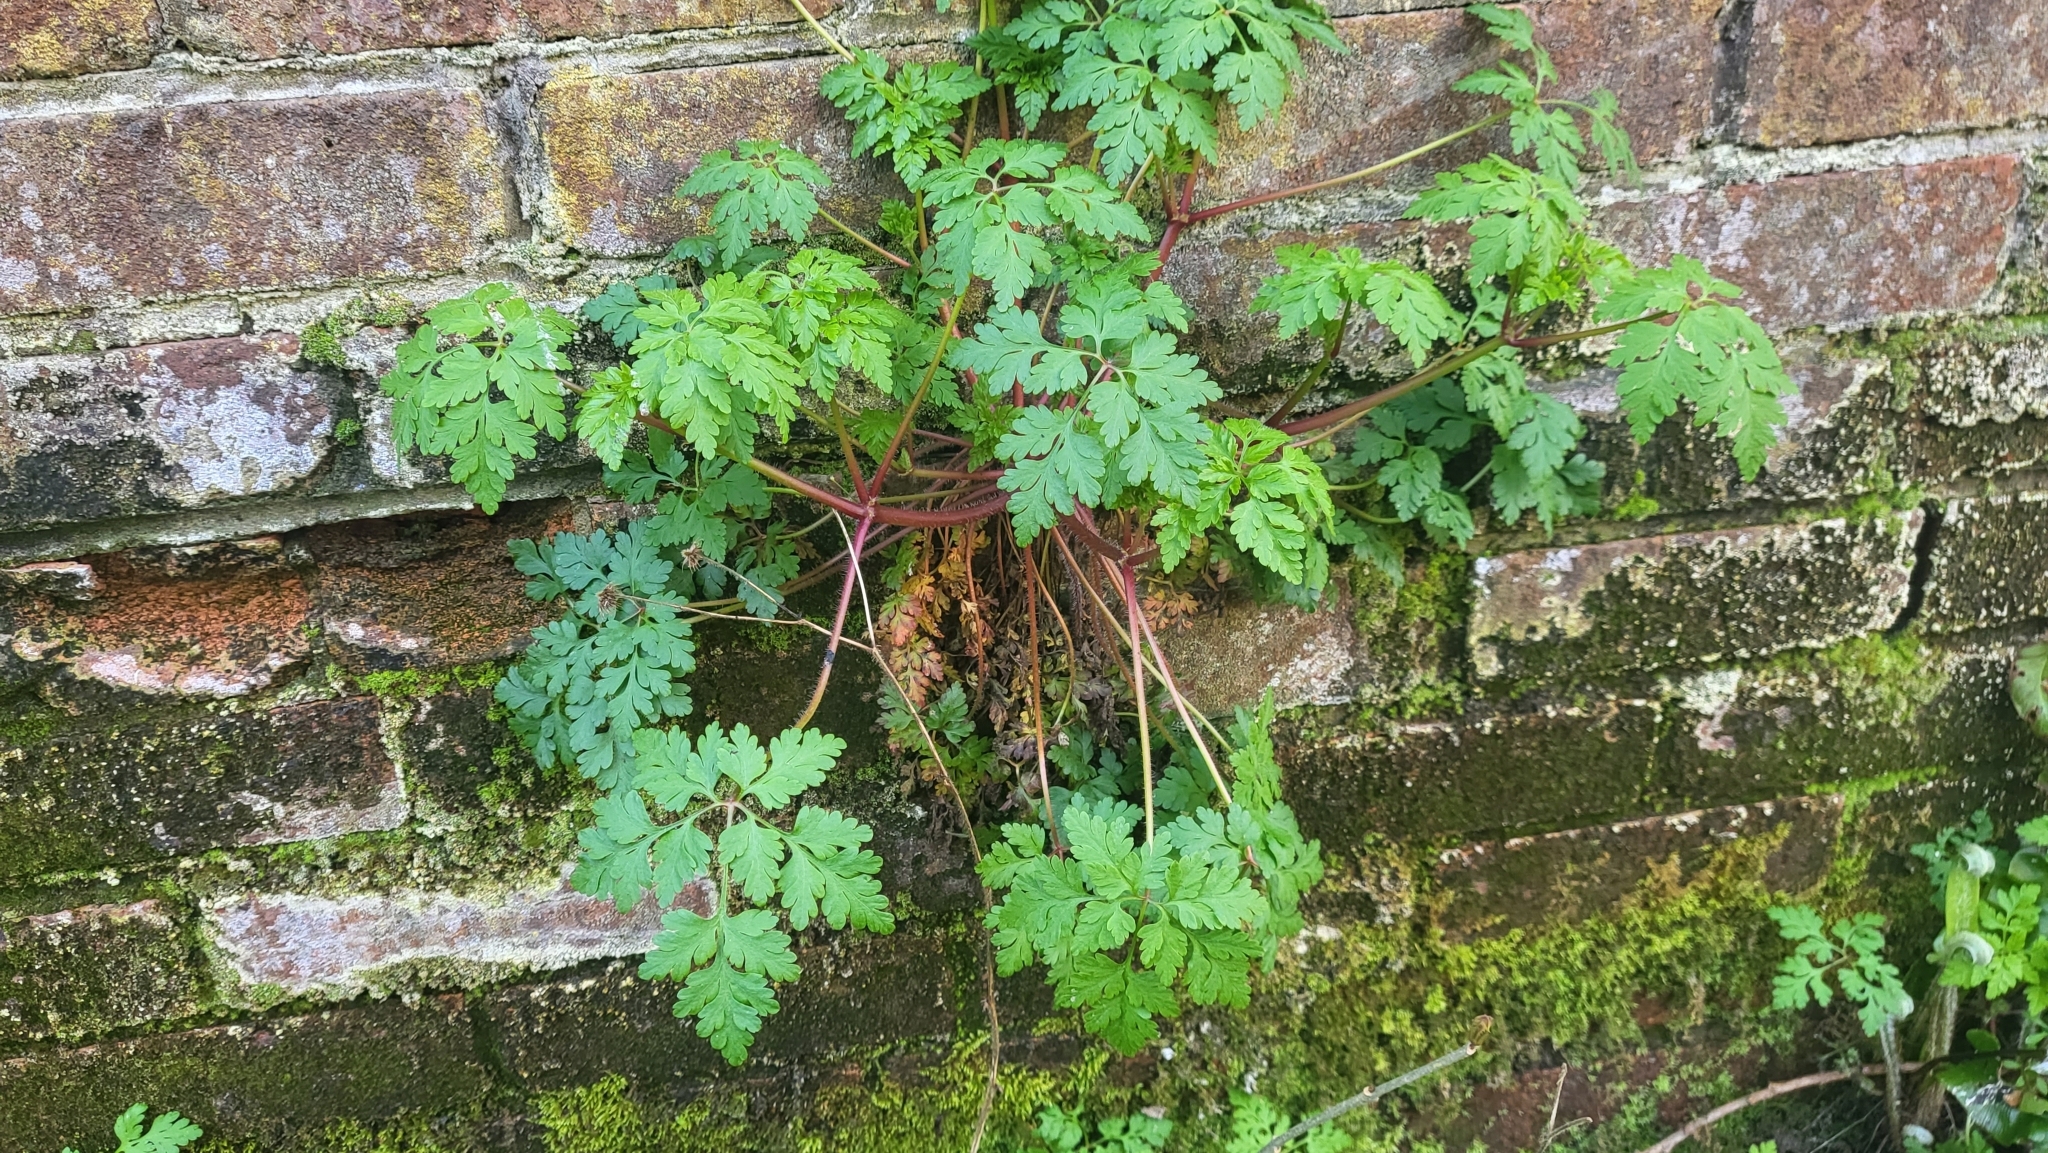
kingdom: Plantae
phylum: Tracheophyta
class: Magnoliopsida
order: Geraniales
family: Geraniaceae
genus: Geranium
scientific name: Geranium robertianum
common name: Herb-robert
